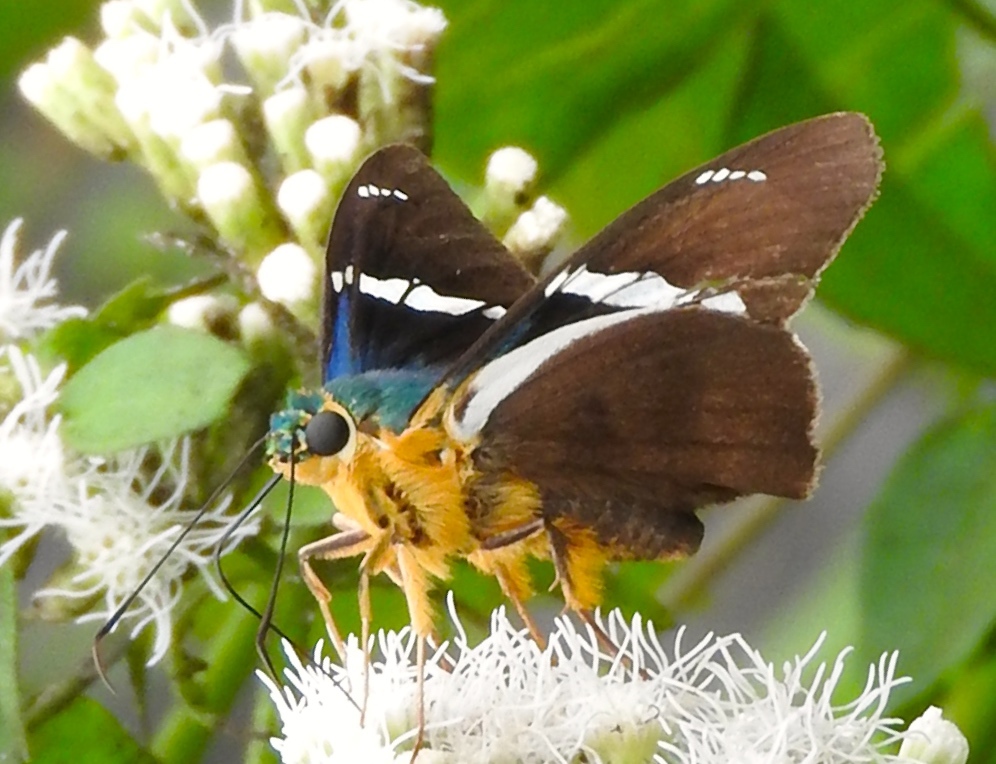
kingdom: Animalia
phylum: Arthropoda
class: Insecta
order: Lepidoptera
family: Hesperiidae
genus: Astraptes
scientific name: Astraptes fulgerator
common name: Two-barred flasher
